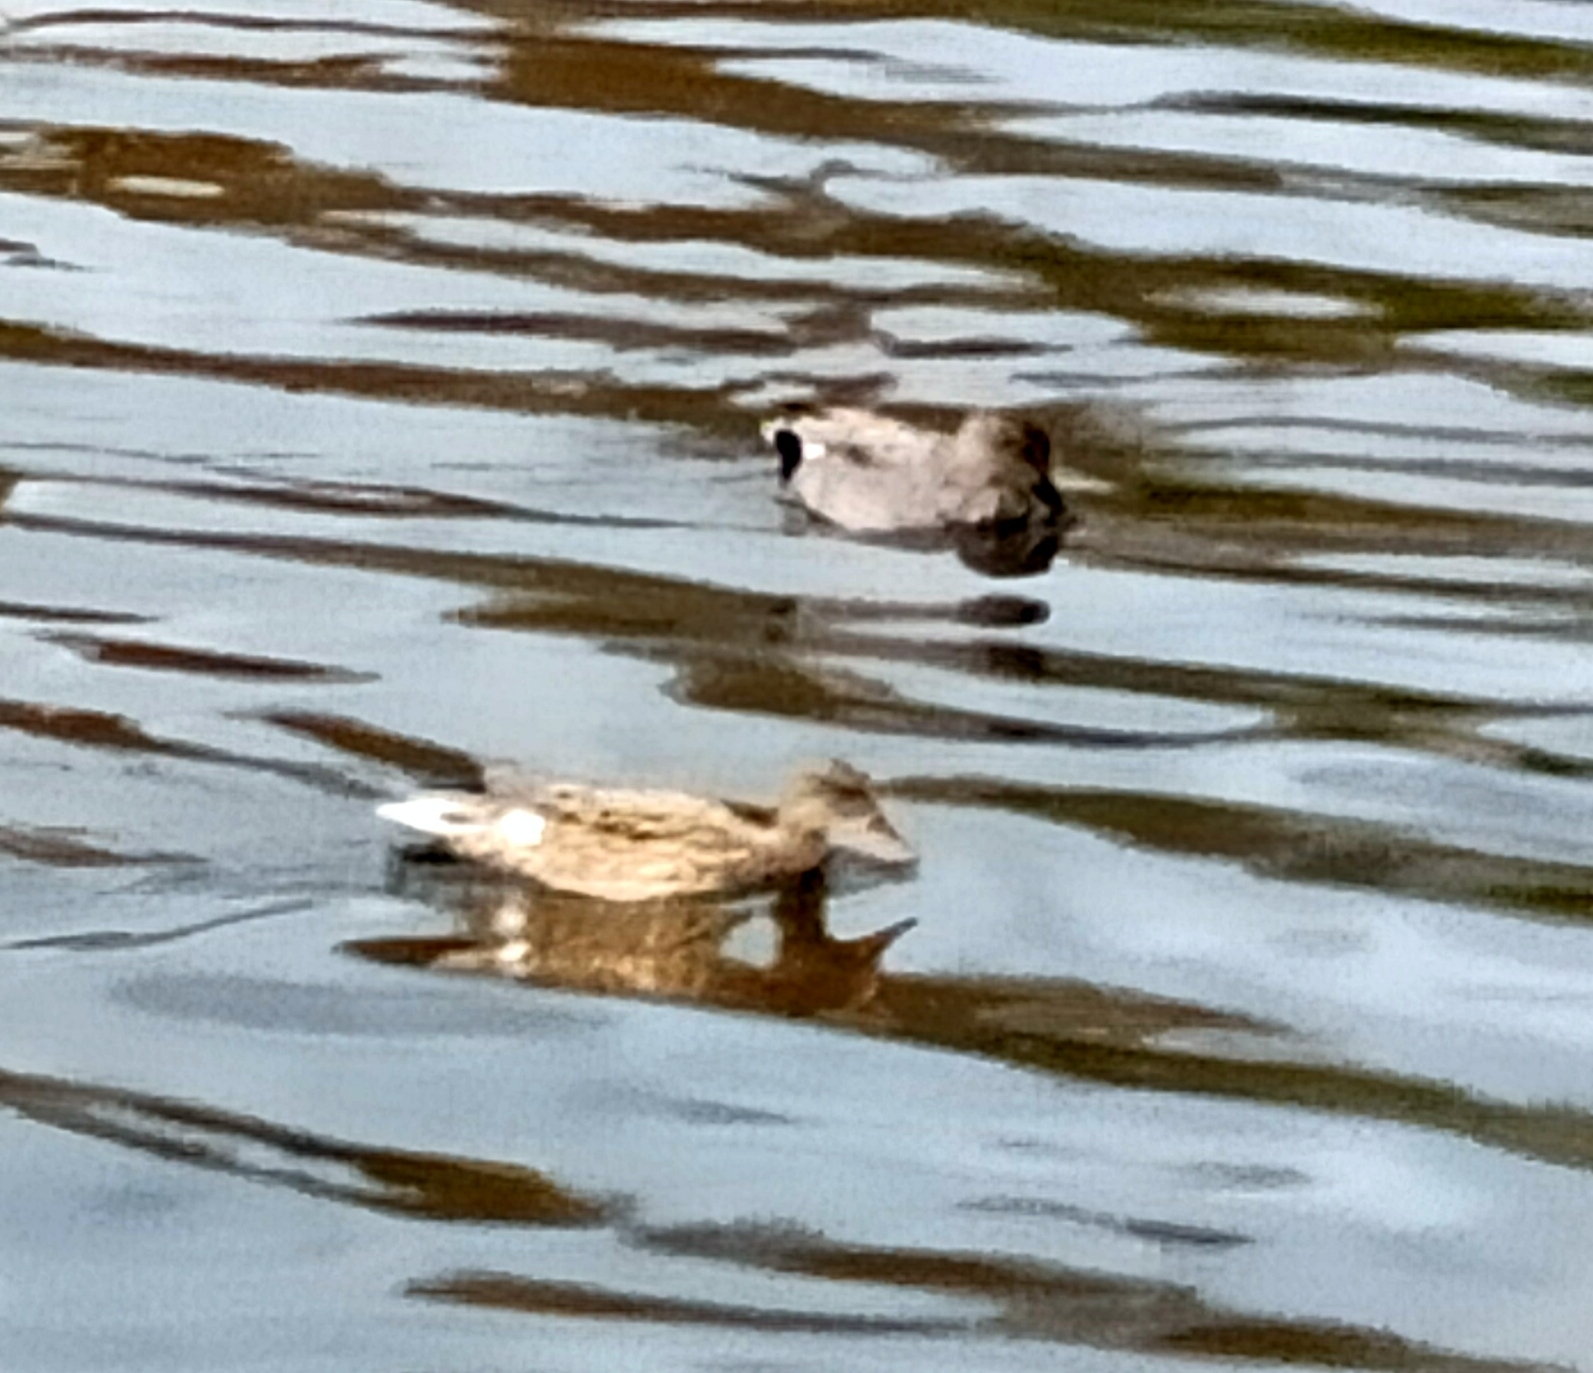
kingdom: Animalia
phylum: Chordata
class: Aves
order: Anseriformes
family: Anatidae
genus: Mareca
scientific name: Mareca strepera
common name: Gadwall
